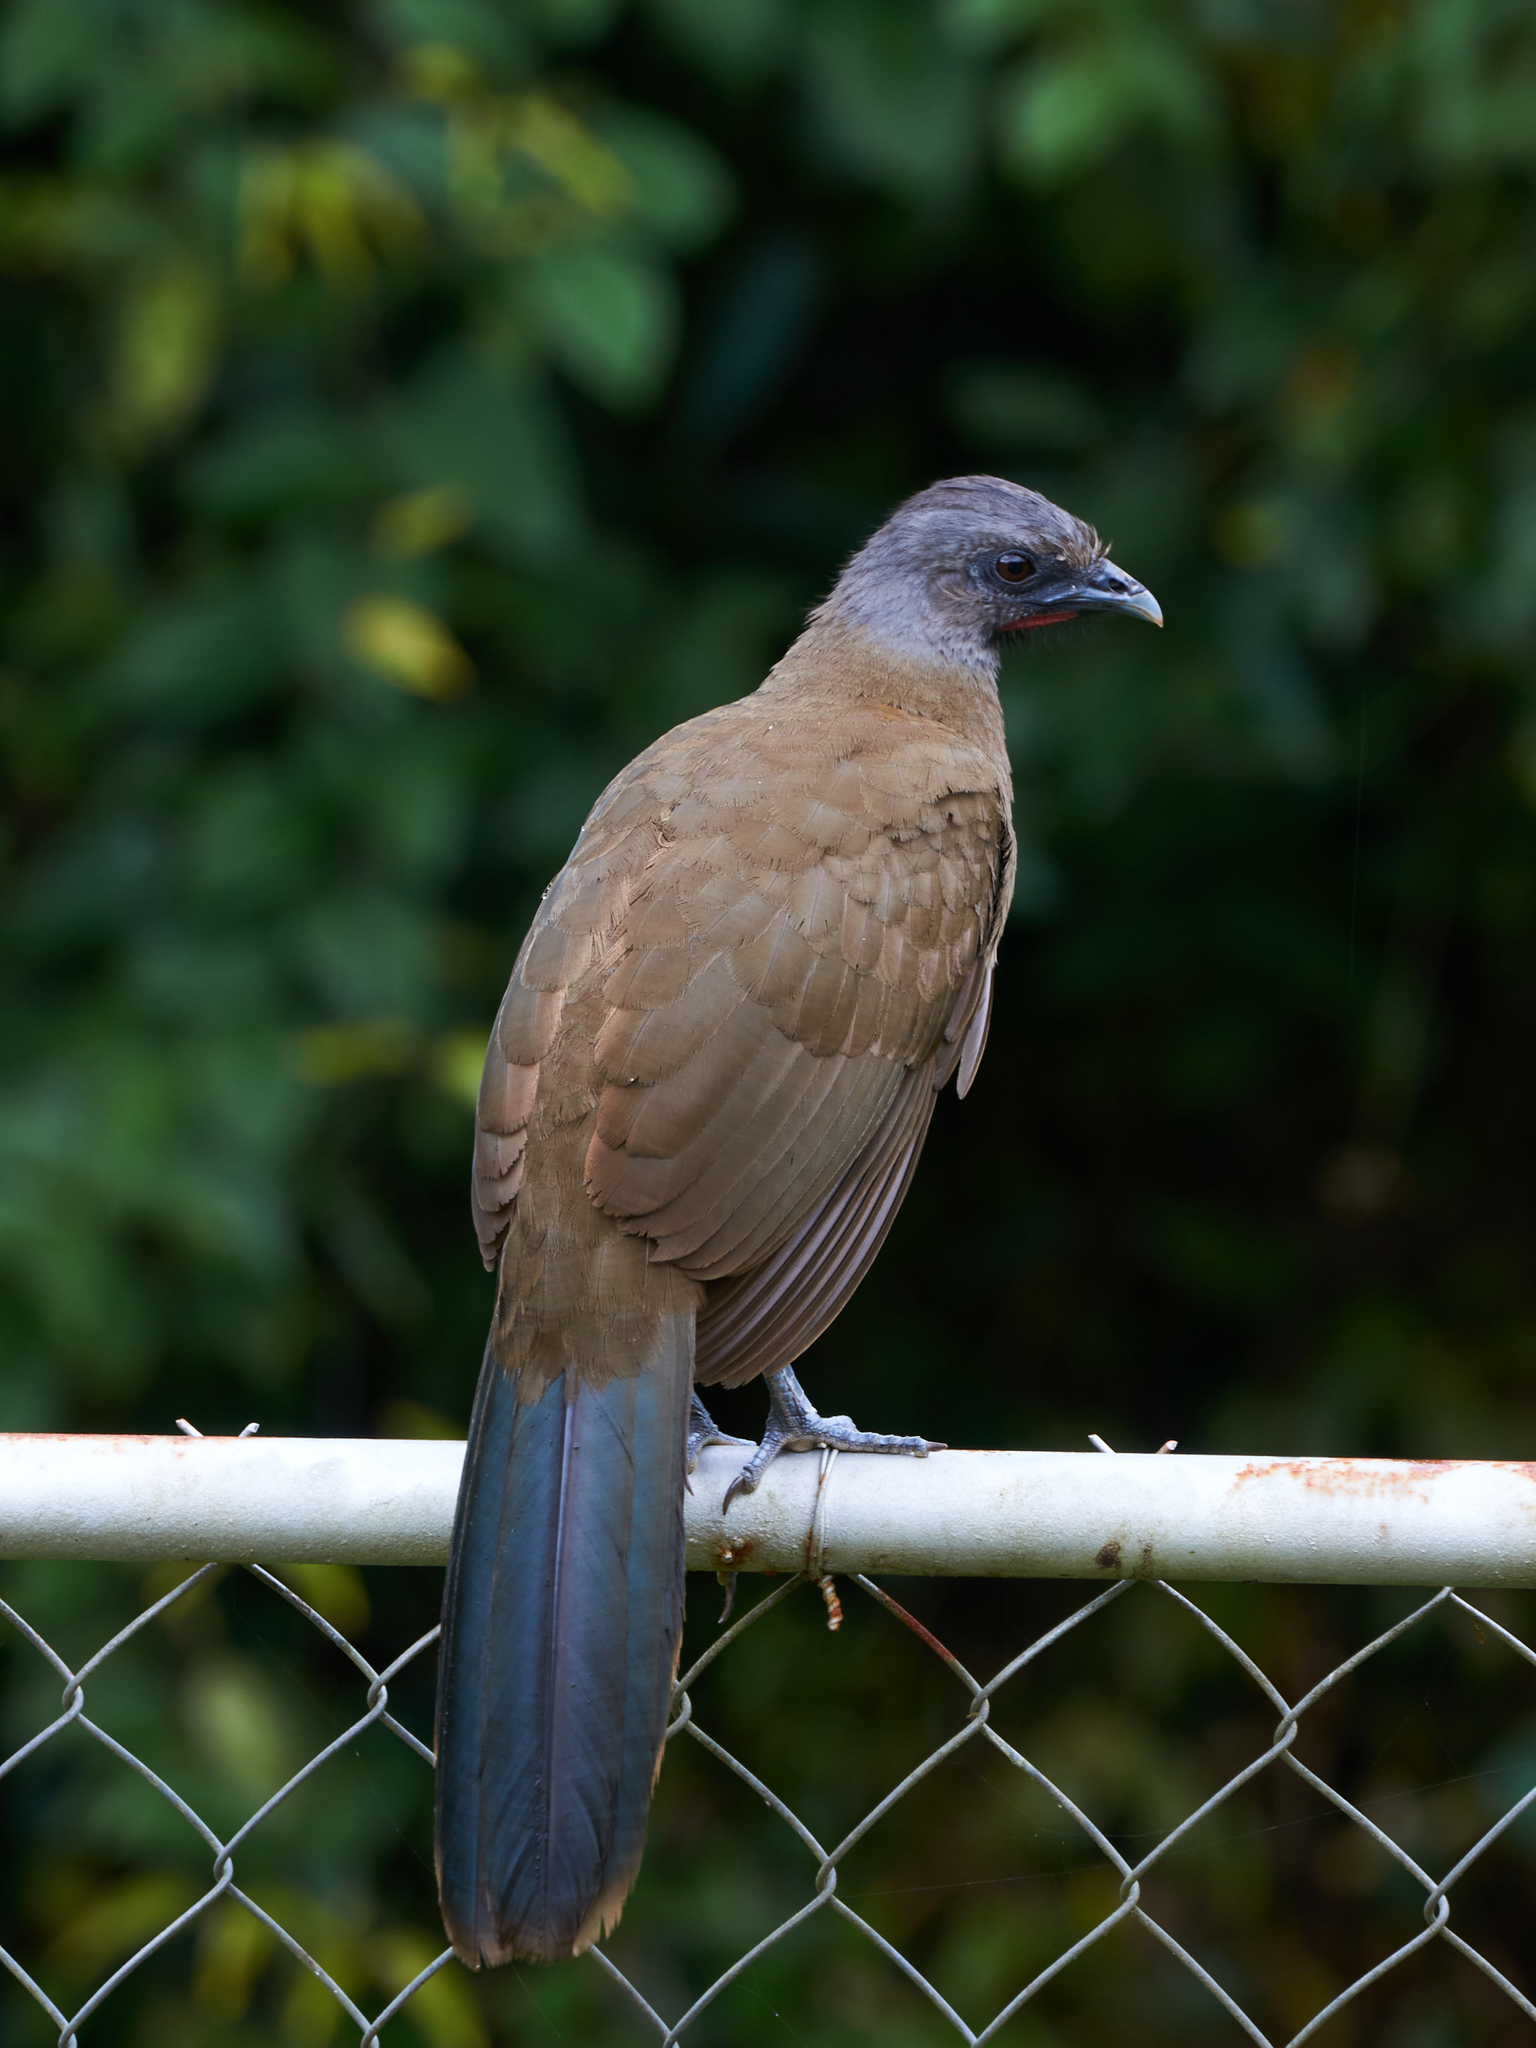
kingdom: Animalia
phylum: Chordata
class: Aves
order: Galliformes
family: Cracidae
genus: Ortalis
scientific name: Ortalis vetula
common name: Plain chachalaca
